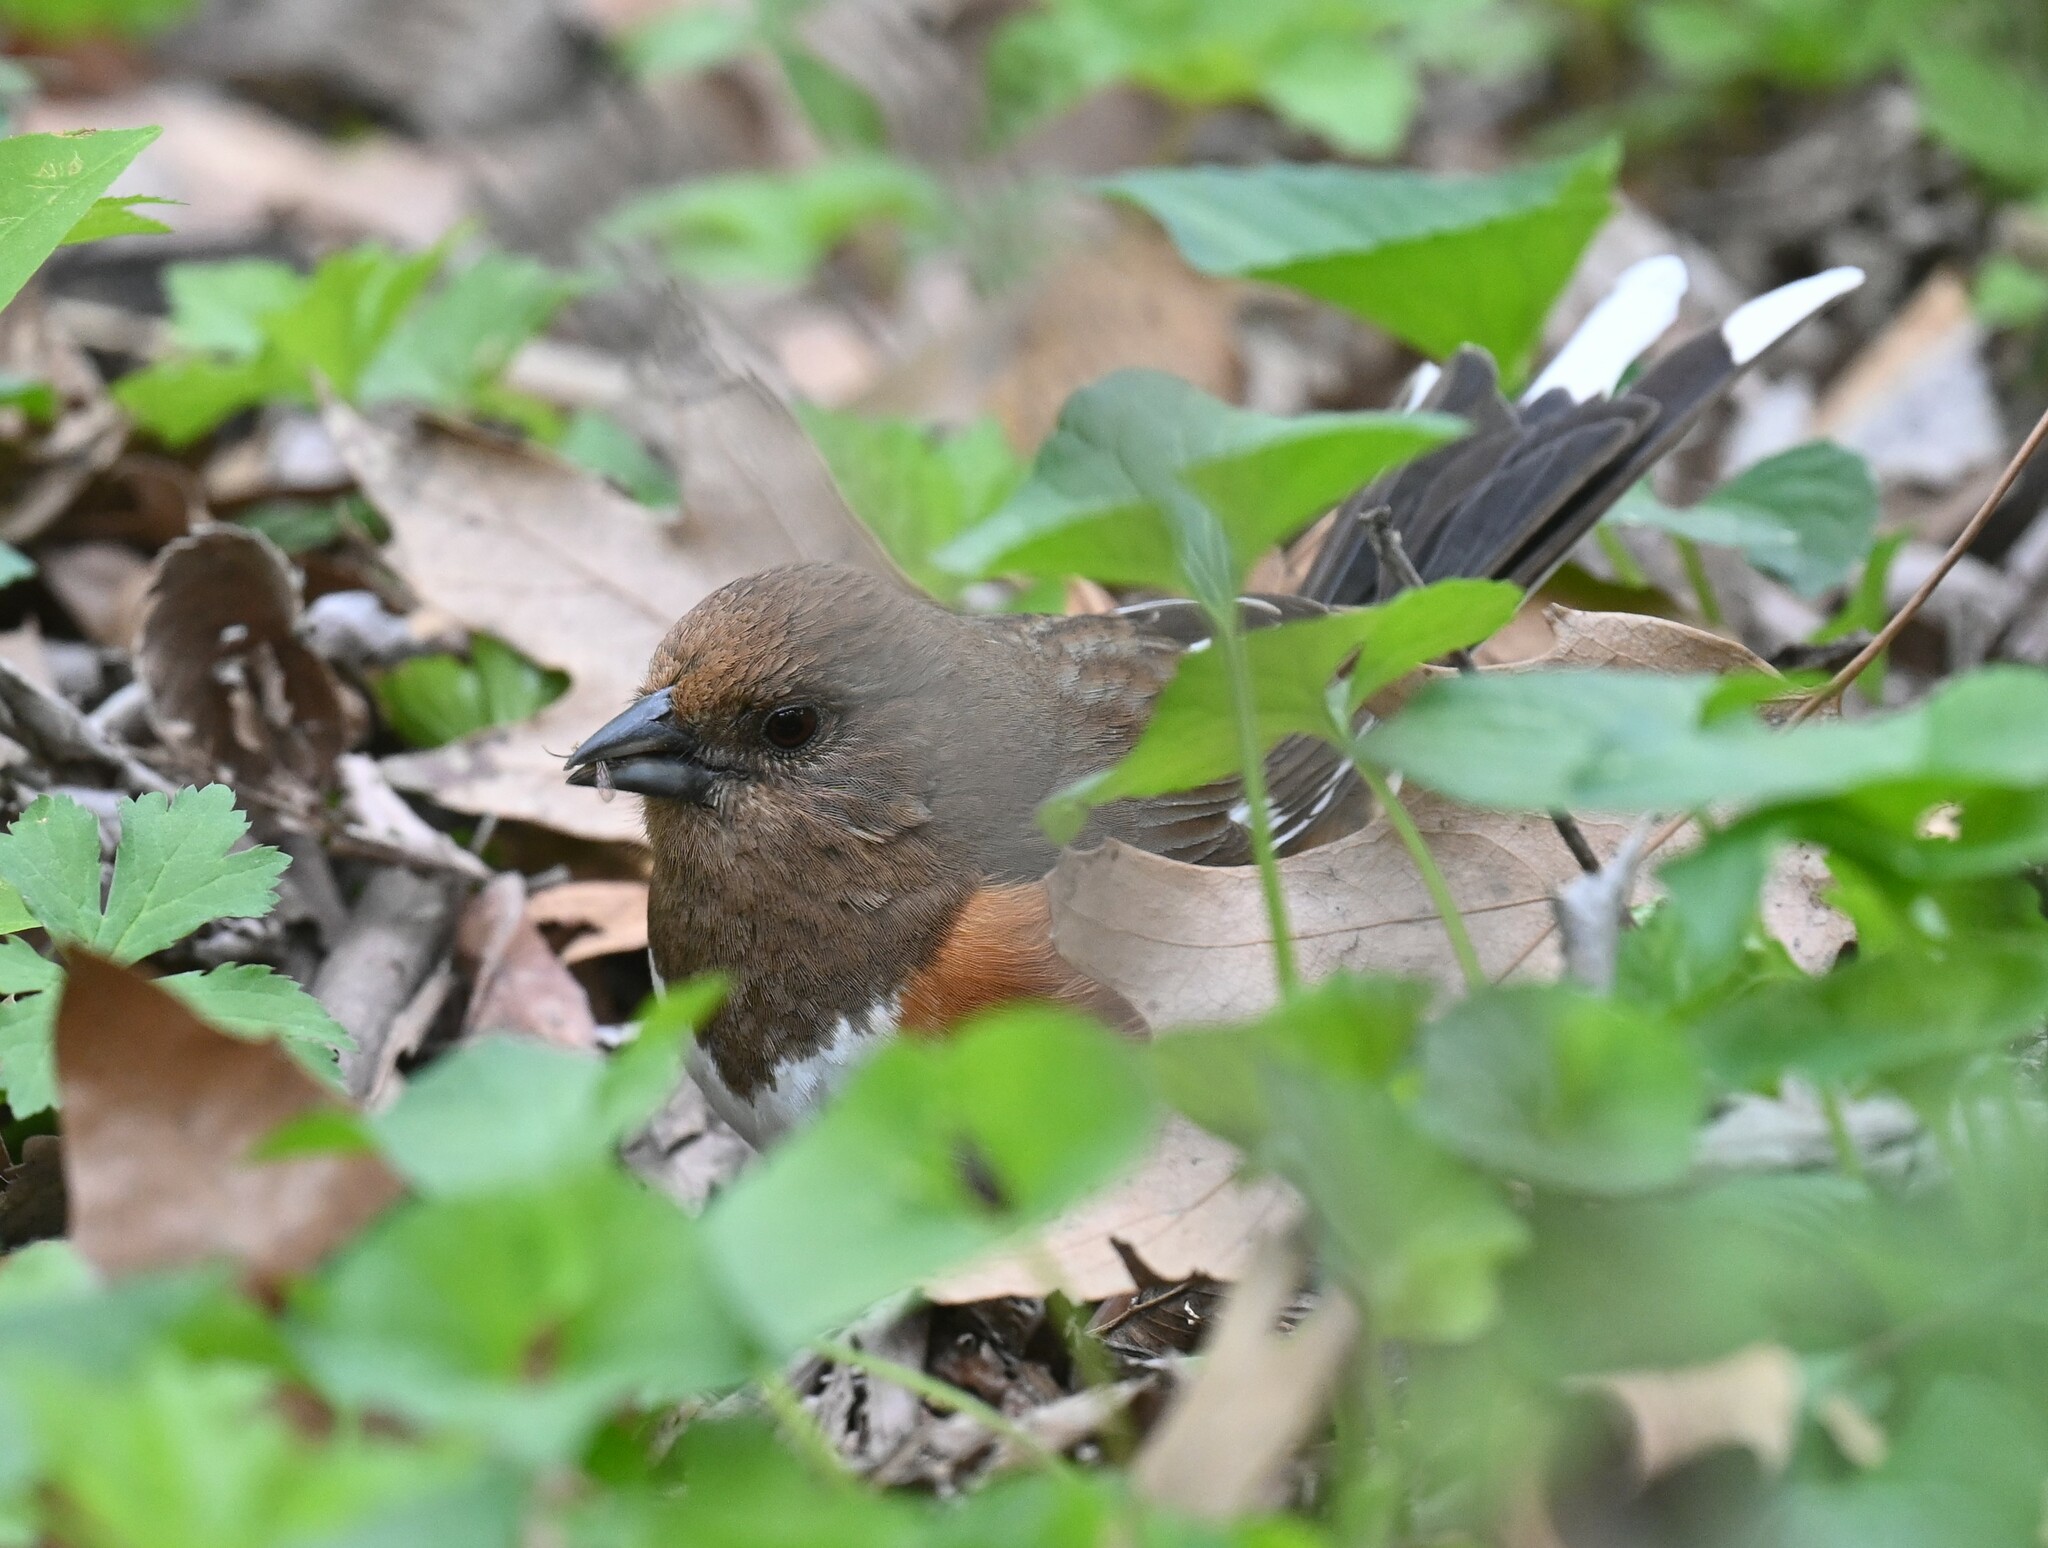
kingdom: Animalia
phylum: Chordata
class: Aves
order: Passeriformes
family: Passerellidae
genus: Pipilo
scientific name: Pipilo erythrophthalmus
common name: Eastern towhee
